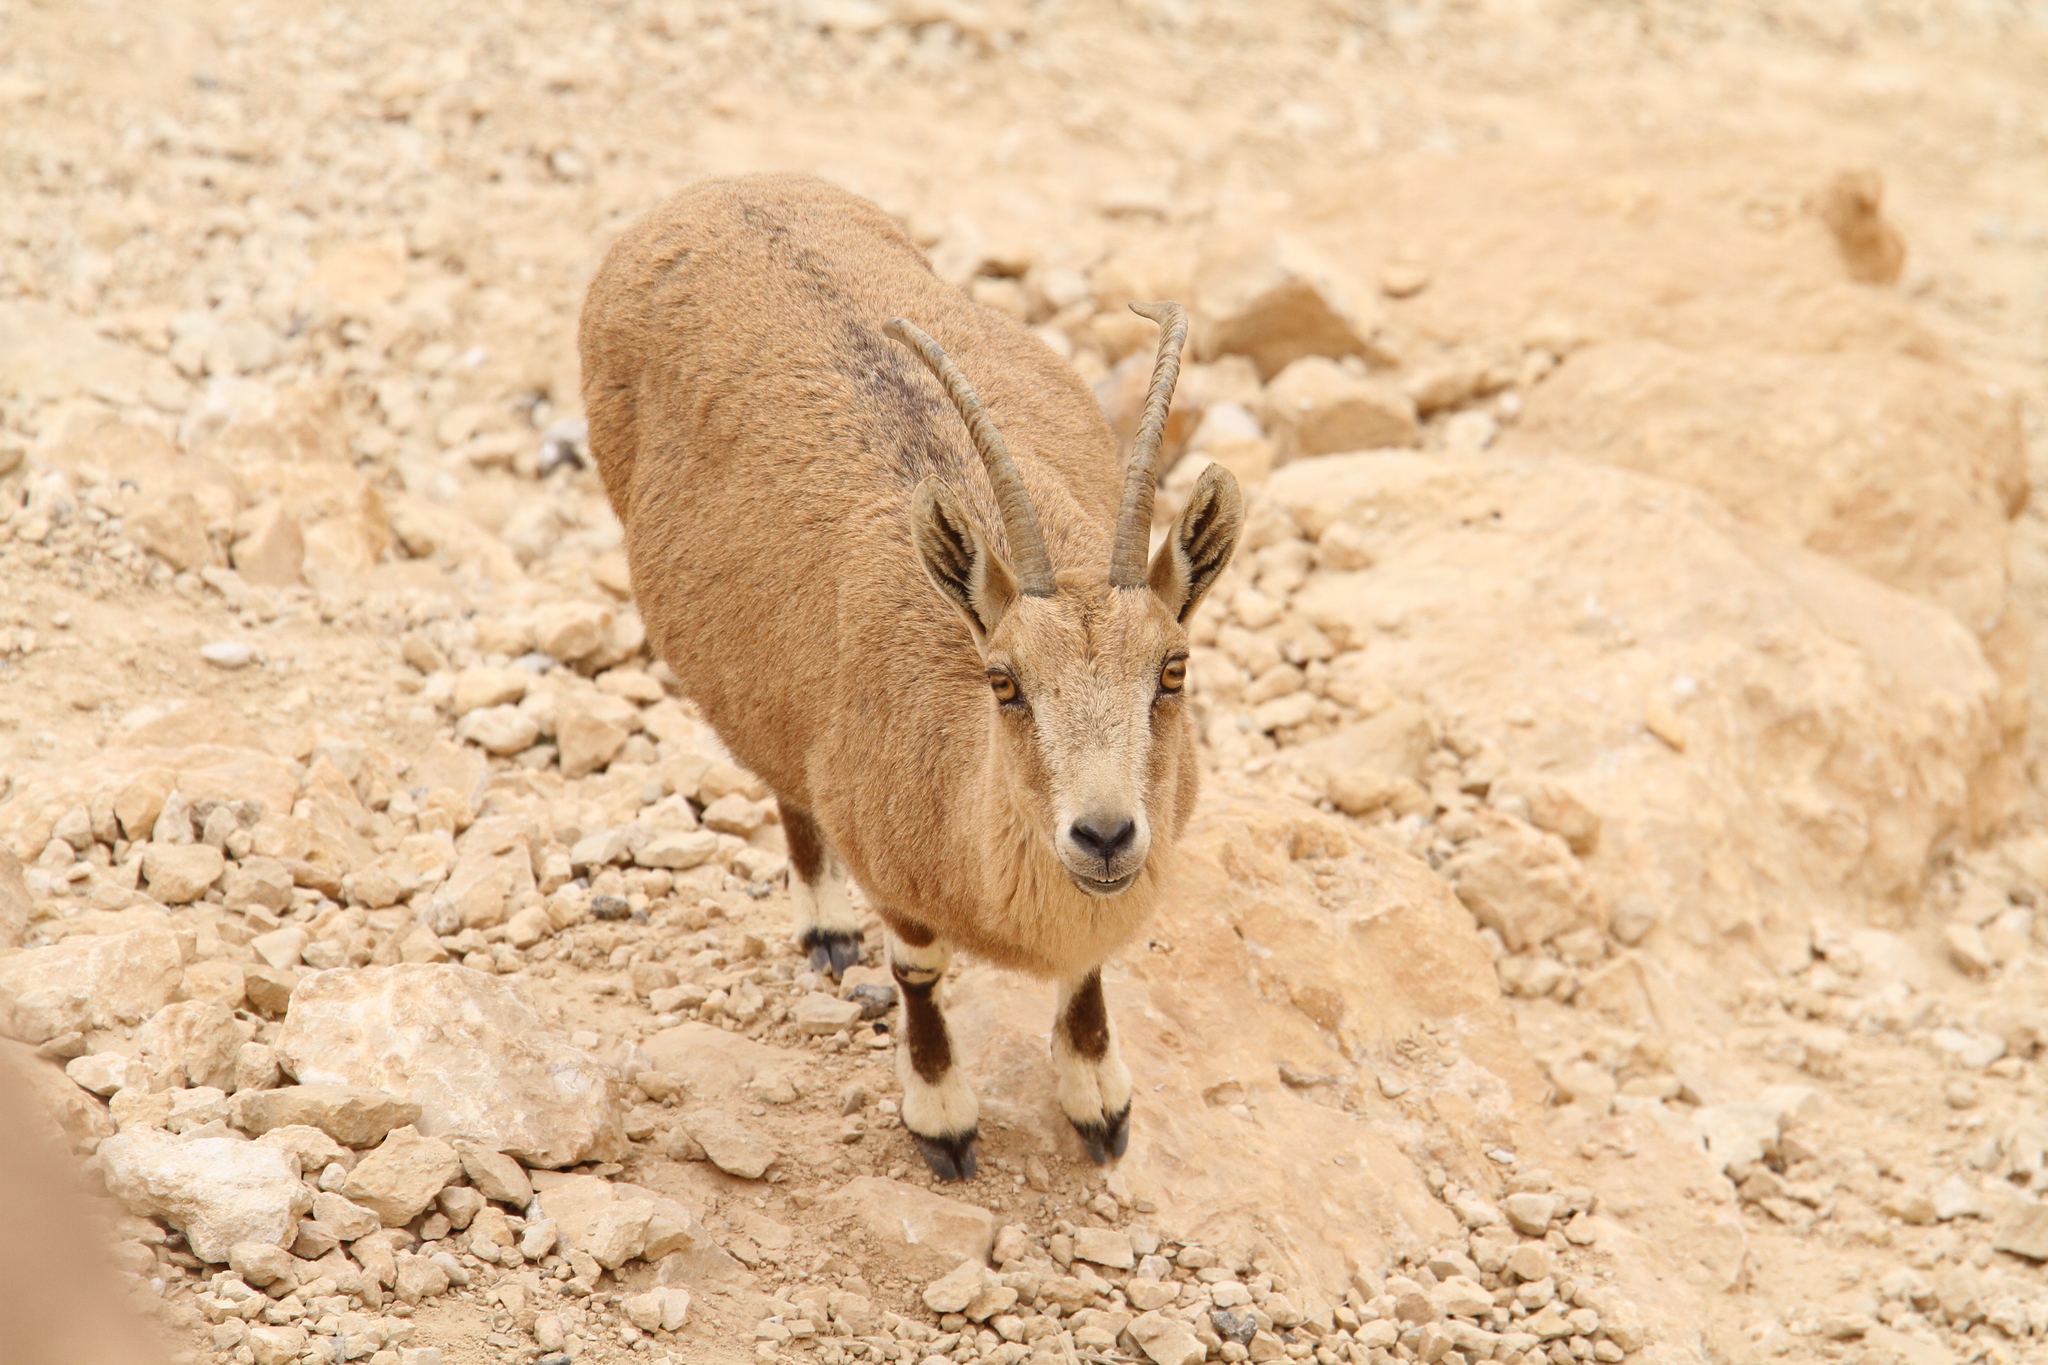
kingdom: Animalia
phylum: Chordata
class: Mammalia
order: Artiodactyla
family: Bovidae
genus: Capra
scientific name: Capra nubiana
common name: Nubian ibex
